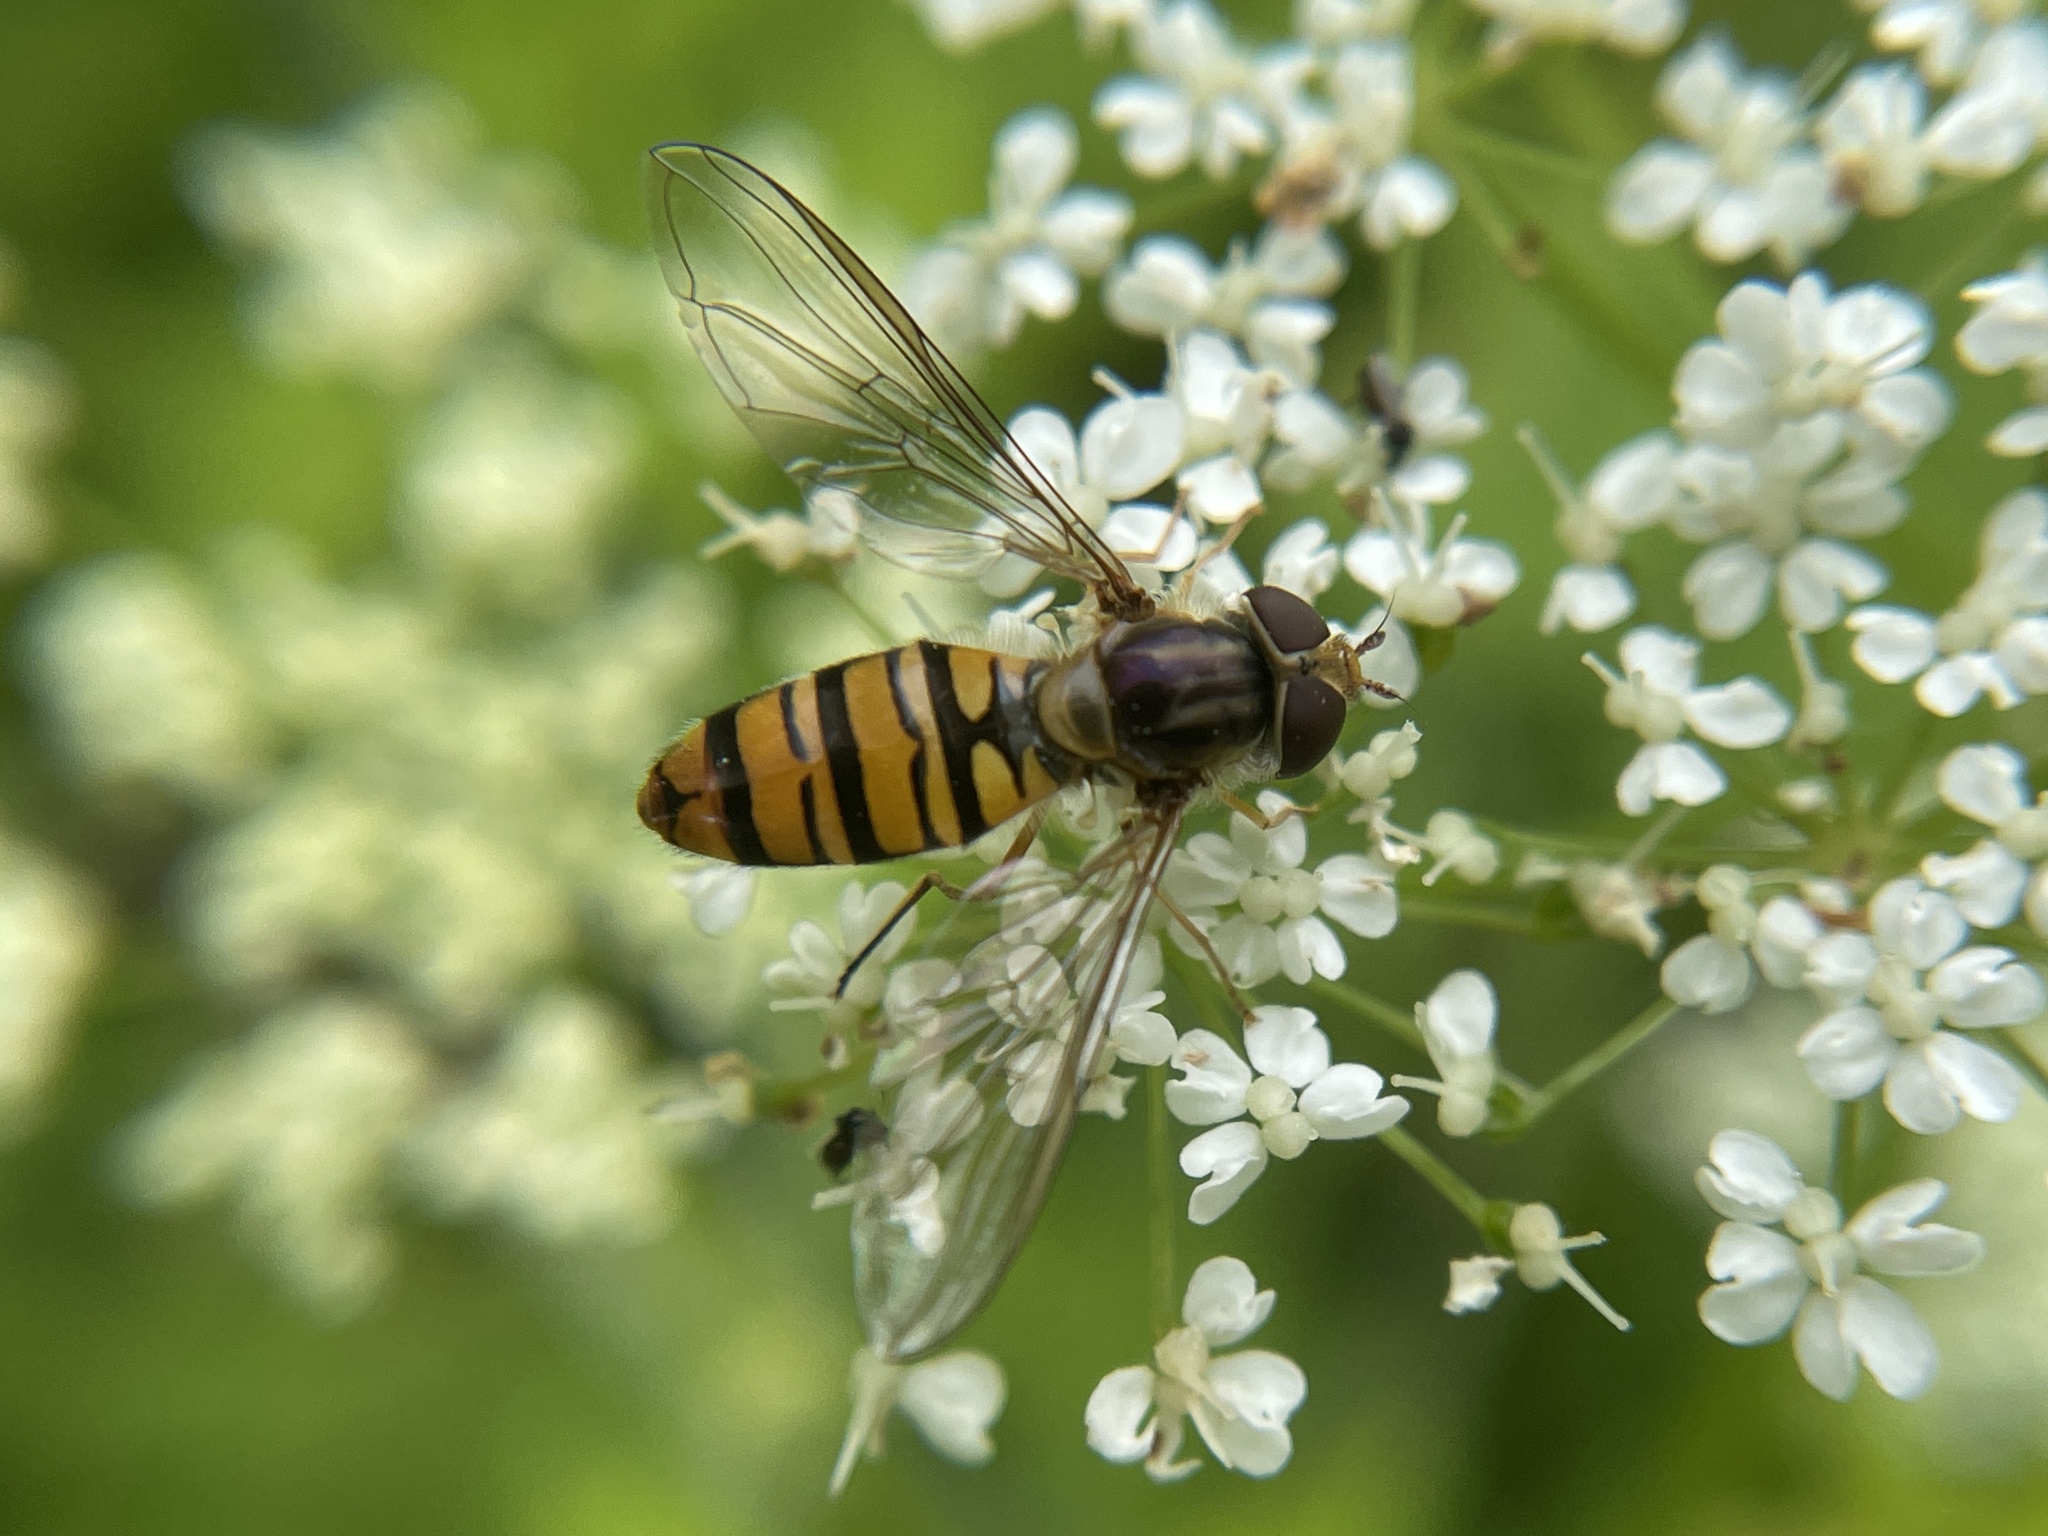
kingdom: Animalia
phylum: Arthropoda
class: Insecta
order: Diptera
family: Syrphidae
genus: Episyrphus
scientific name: Episyrphus balteatus
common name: Marmalade hoverfly
